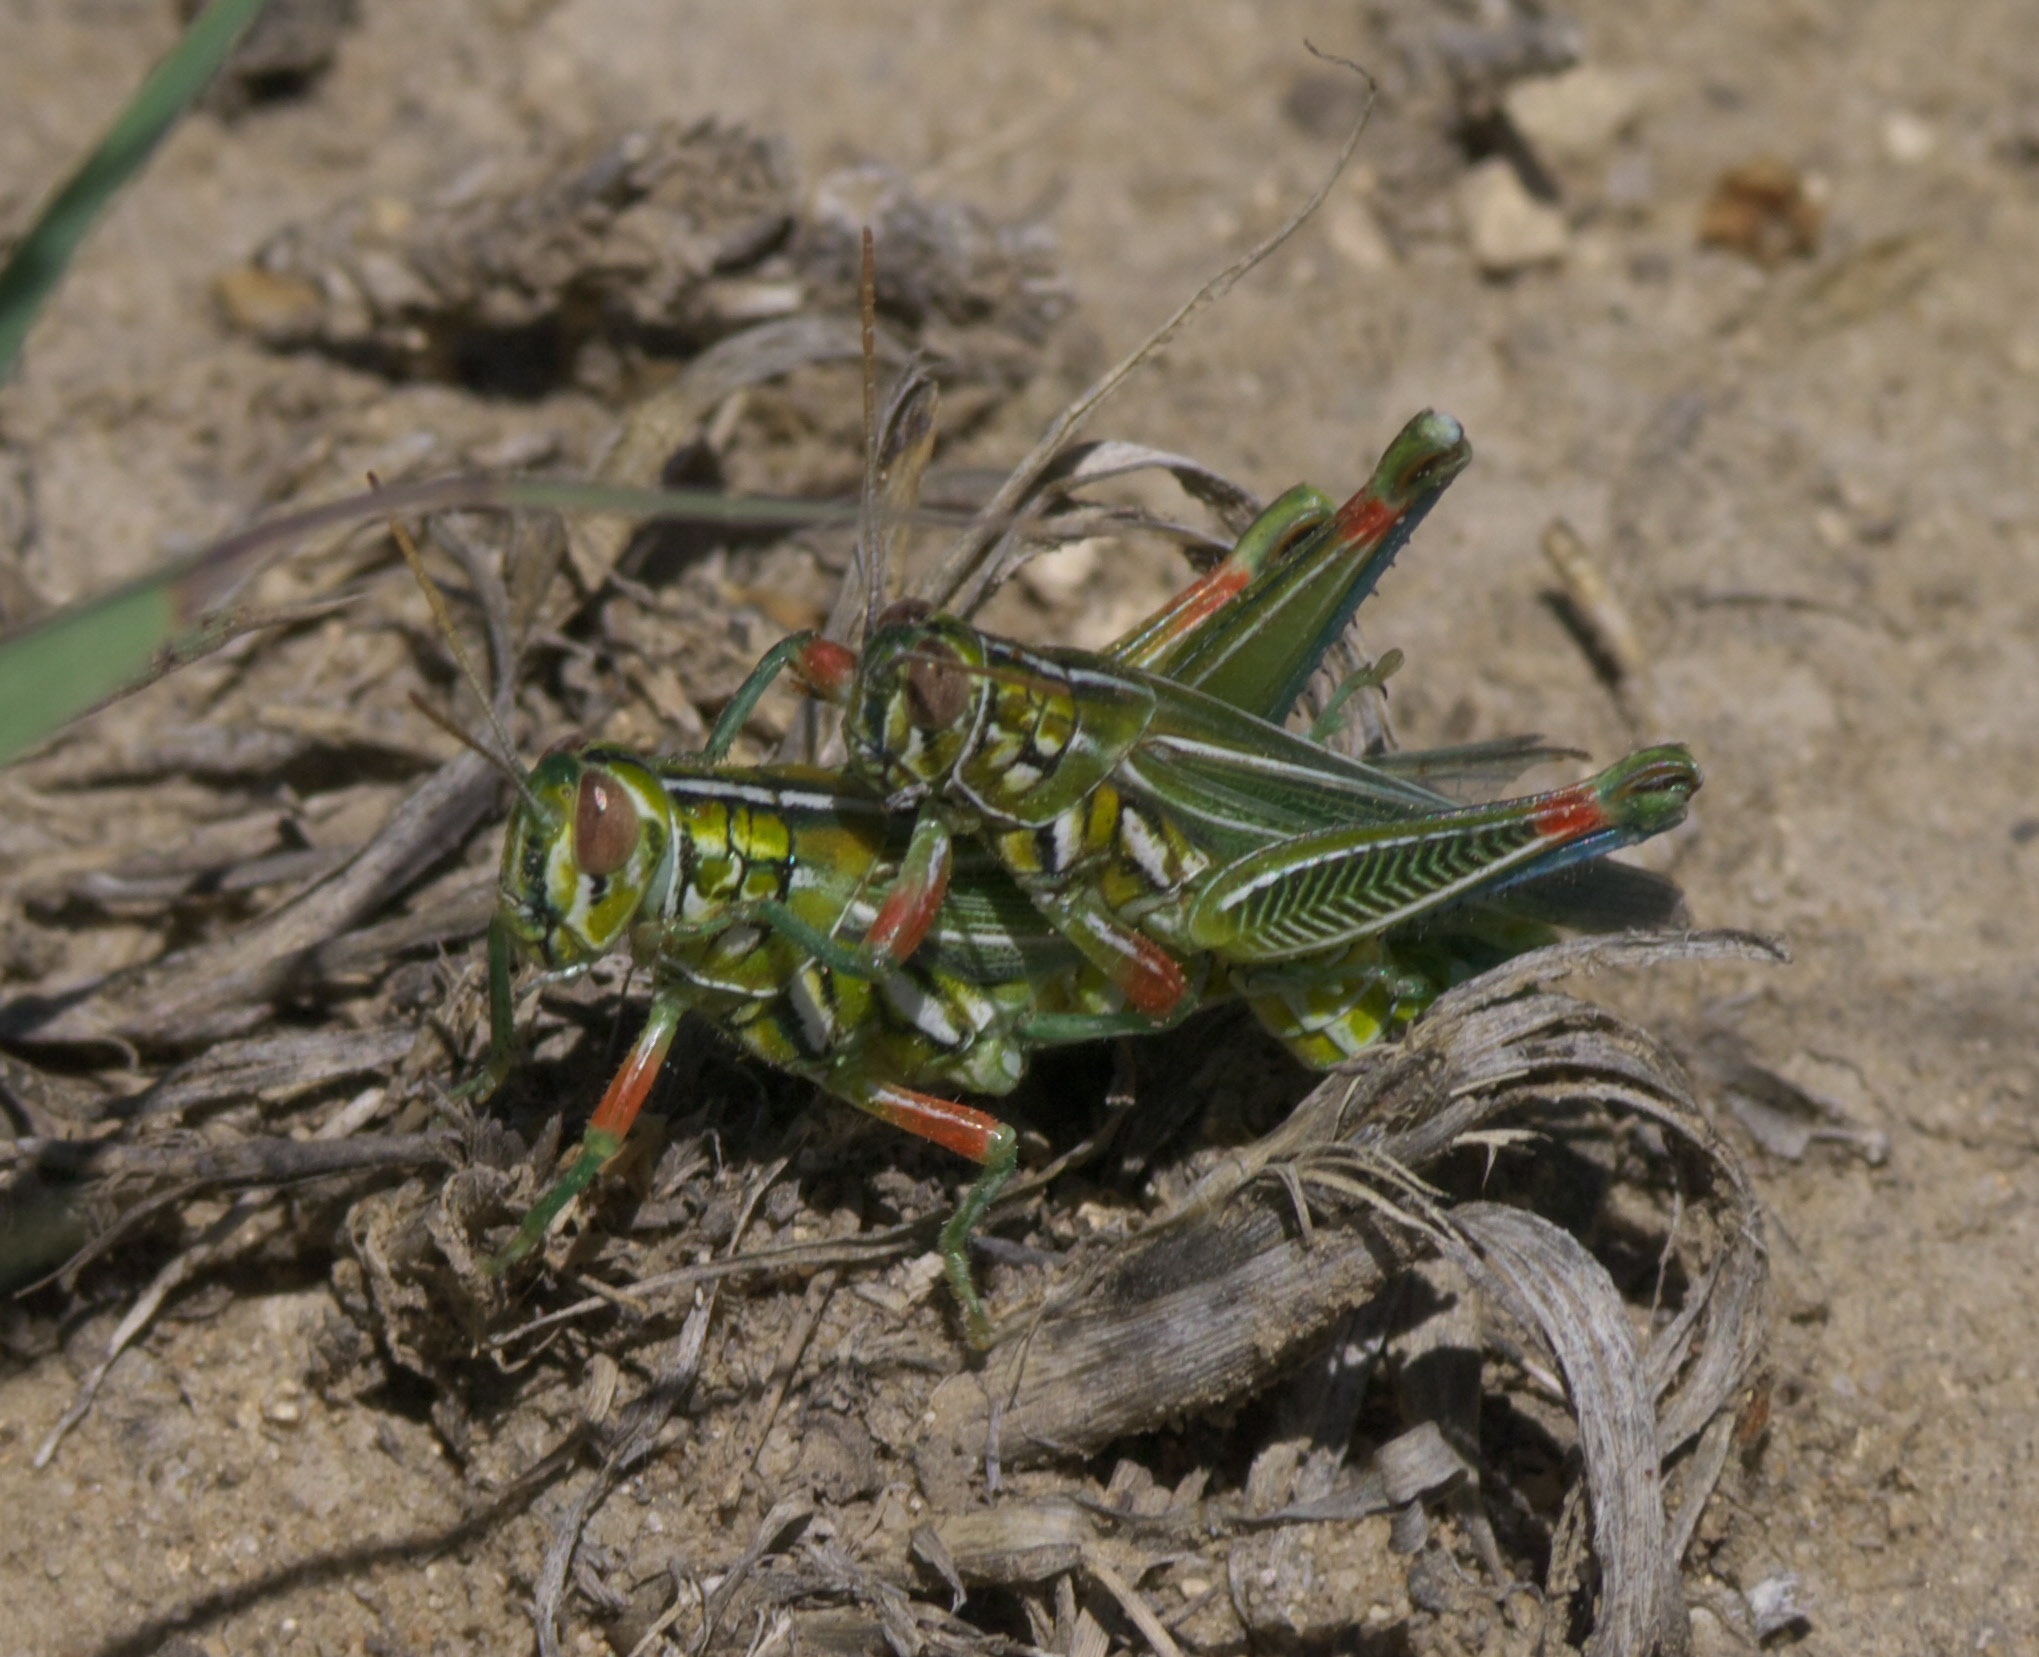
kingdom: Animalia
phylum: Arthropoda
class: Insecta
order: Orthoptera
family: Acrididae
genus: Hesperotettix
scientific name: Hesperotettix viridis
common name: Meadow purple-striped grasshopper
